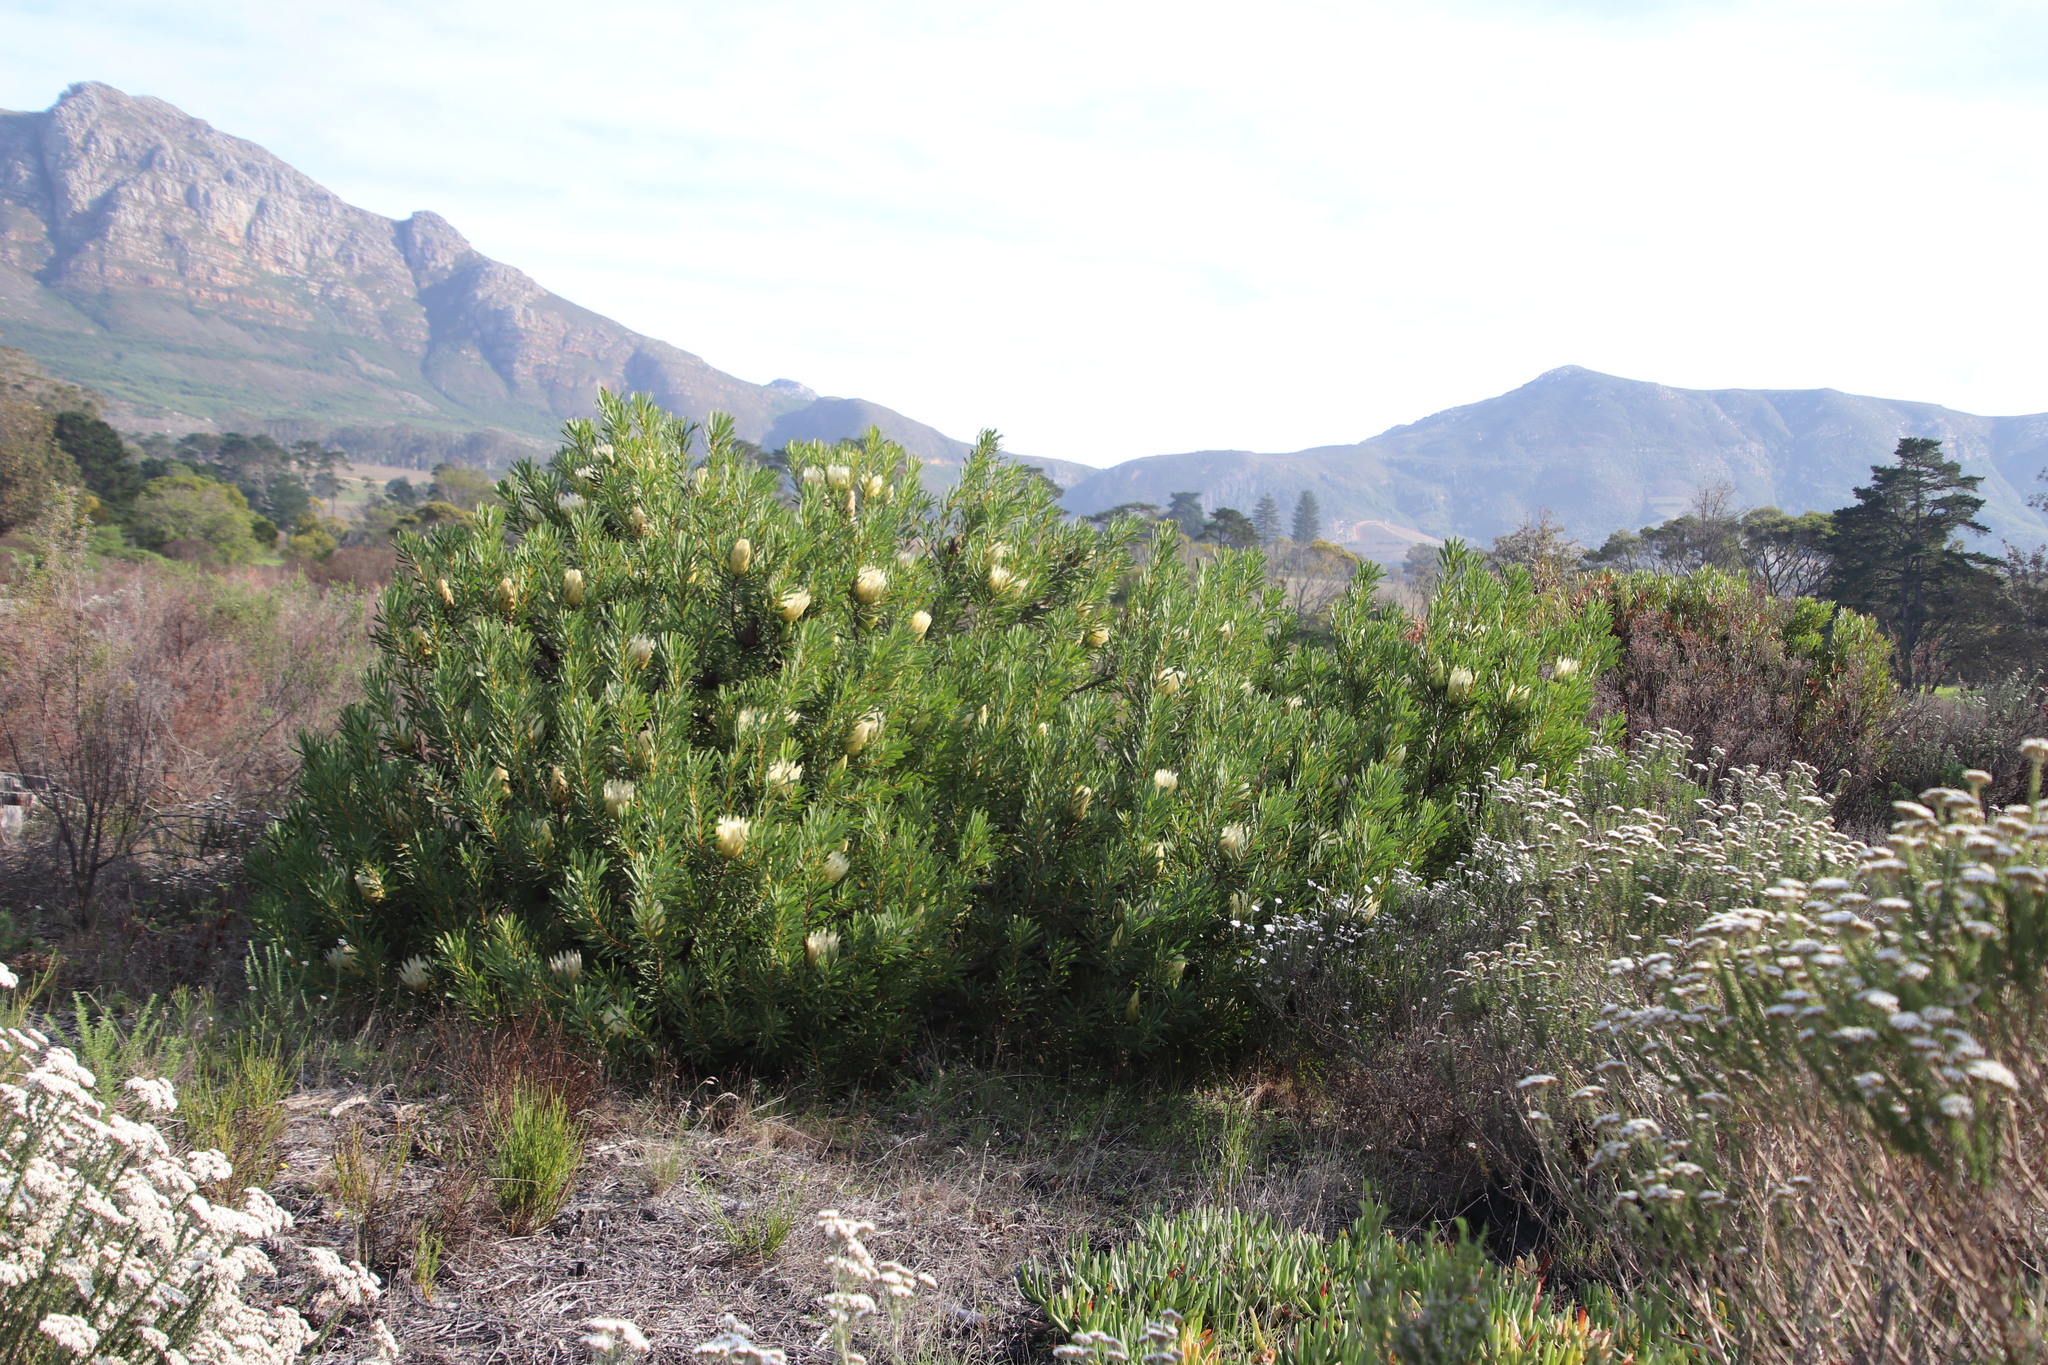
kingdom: Plantae
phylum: Tracheophyta
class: Magnoliopsida
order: Proteales
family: Proteaceae
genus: Protea
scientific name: Protea repens
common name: Sugarbush
